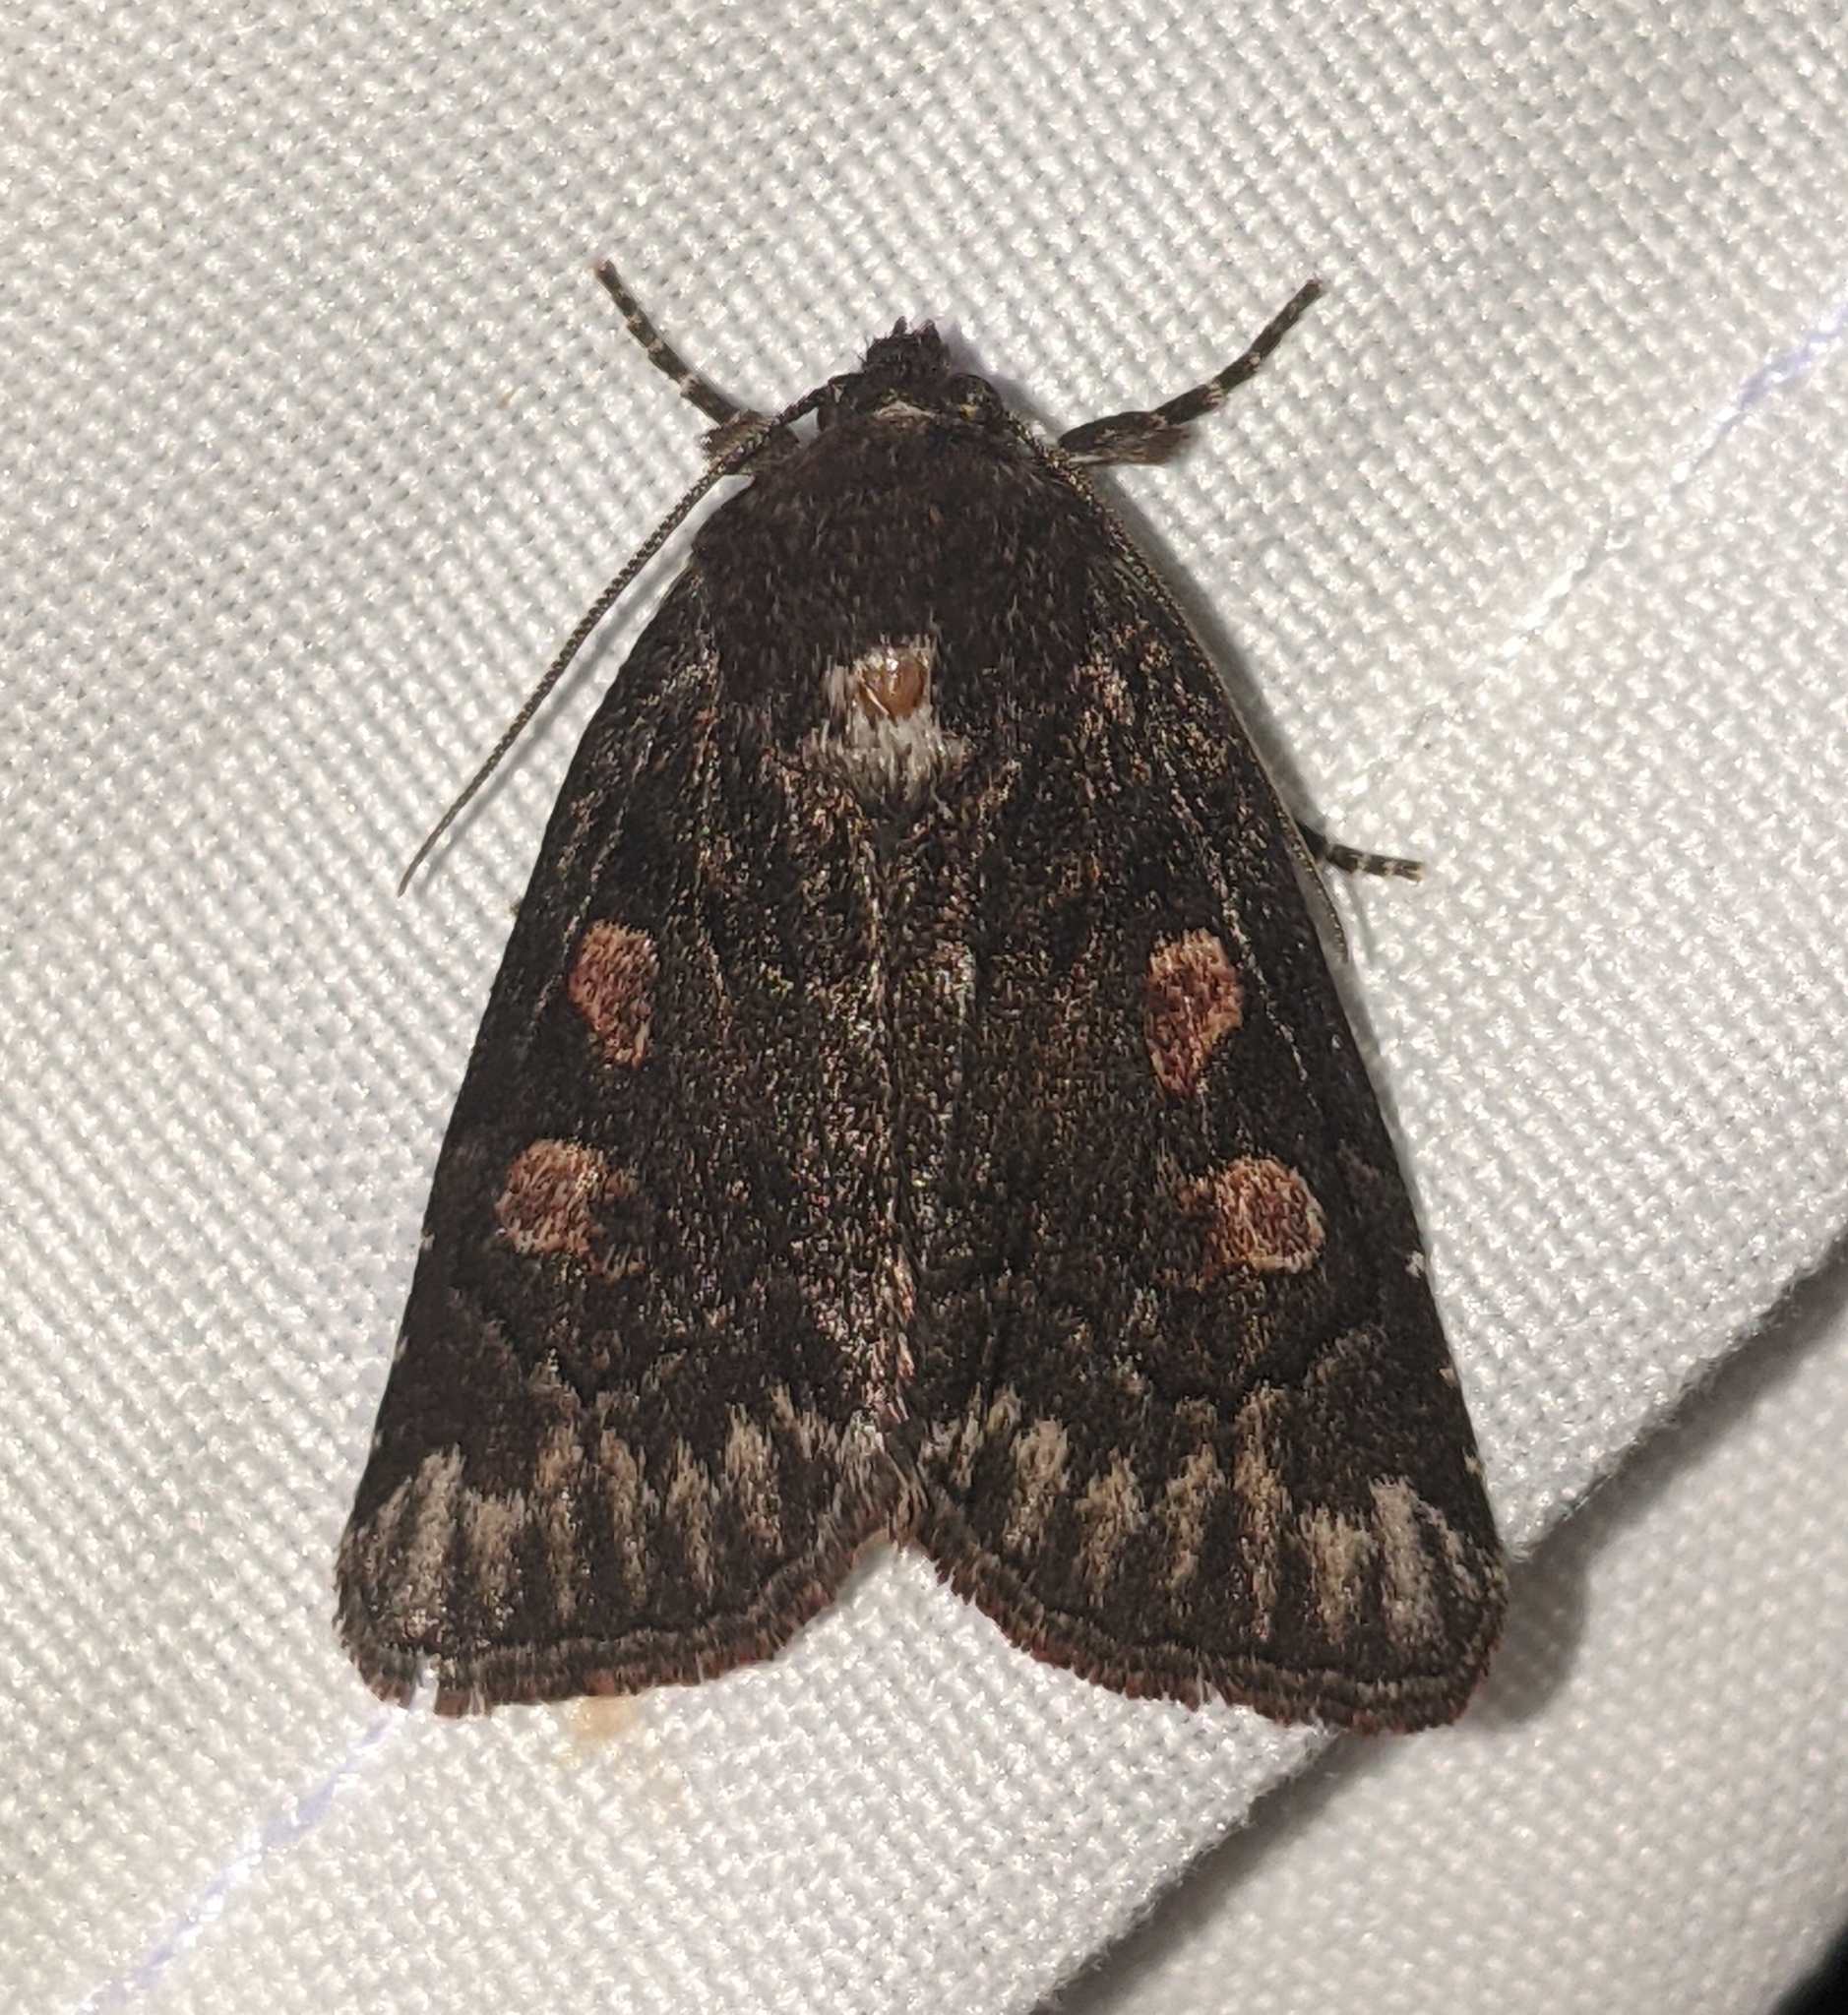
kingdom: Animalia
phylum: Arthropoda
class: Insecta
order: Lepidoptera
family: Noctuidae
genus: Cosmia
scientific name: Cosmia praeacuta
